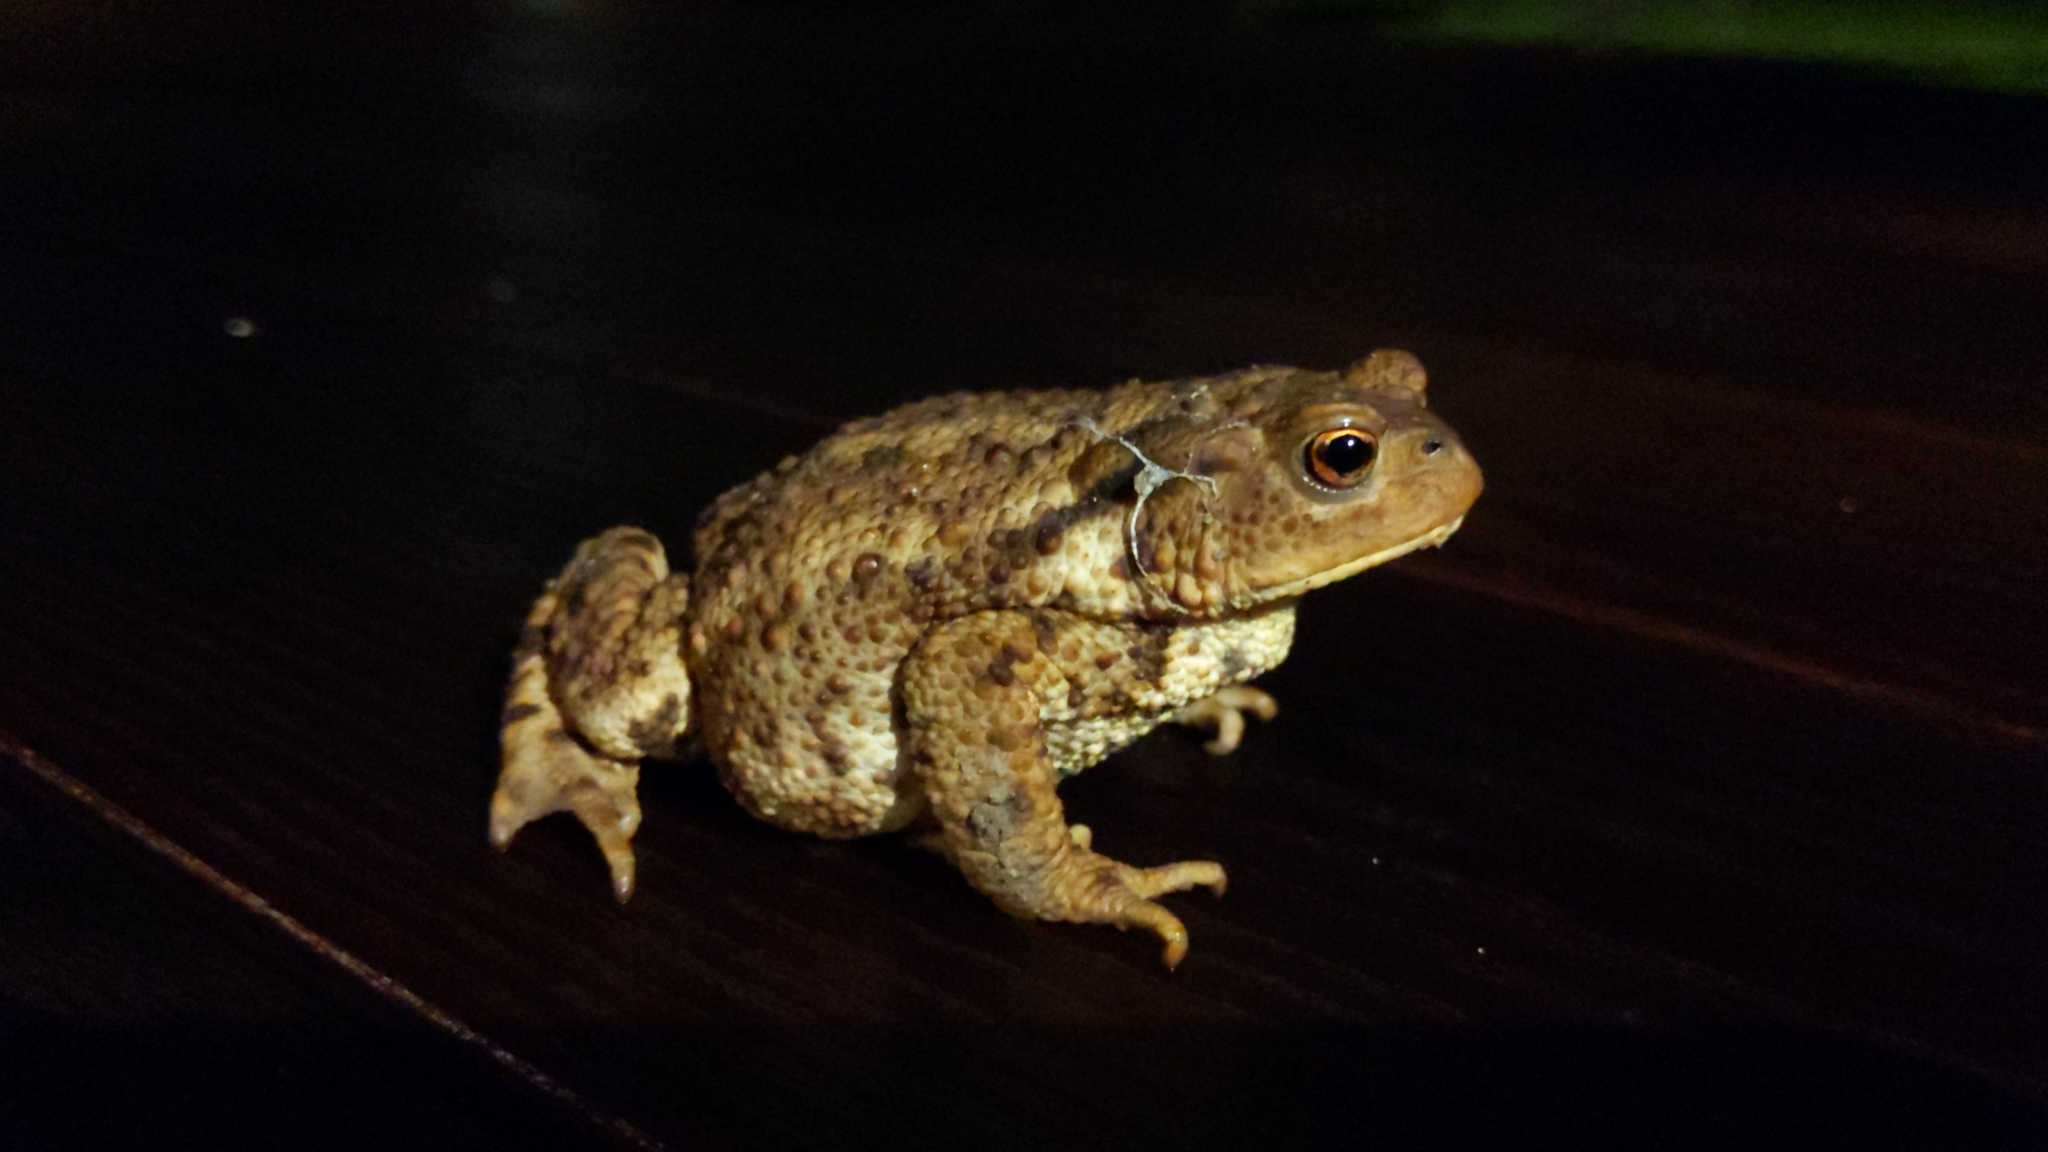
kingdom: Animalia
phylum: Chordata
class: Amphibia
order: Anura
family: Bufonidae
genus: Bufo
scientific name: Bufo bufo
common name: Common toad
